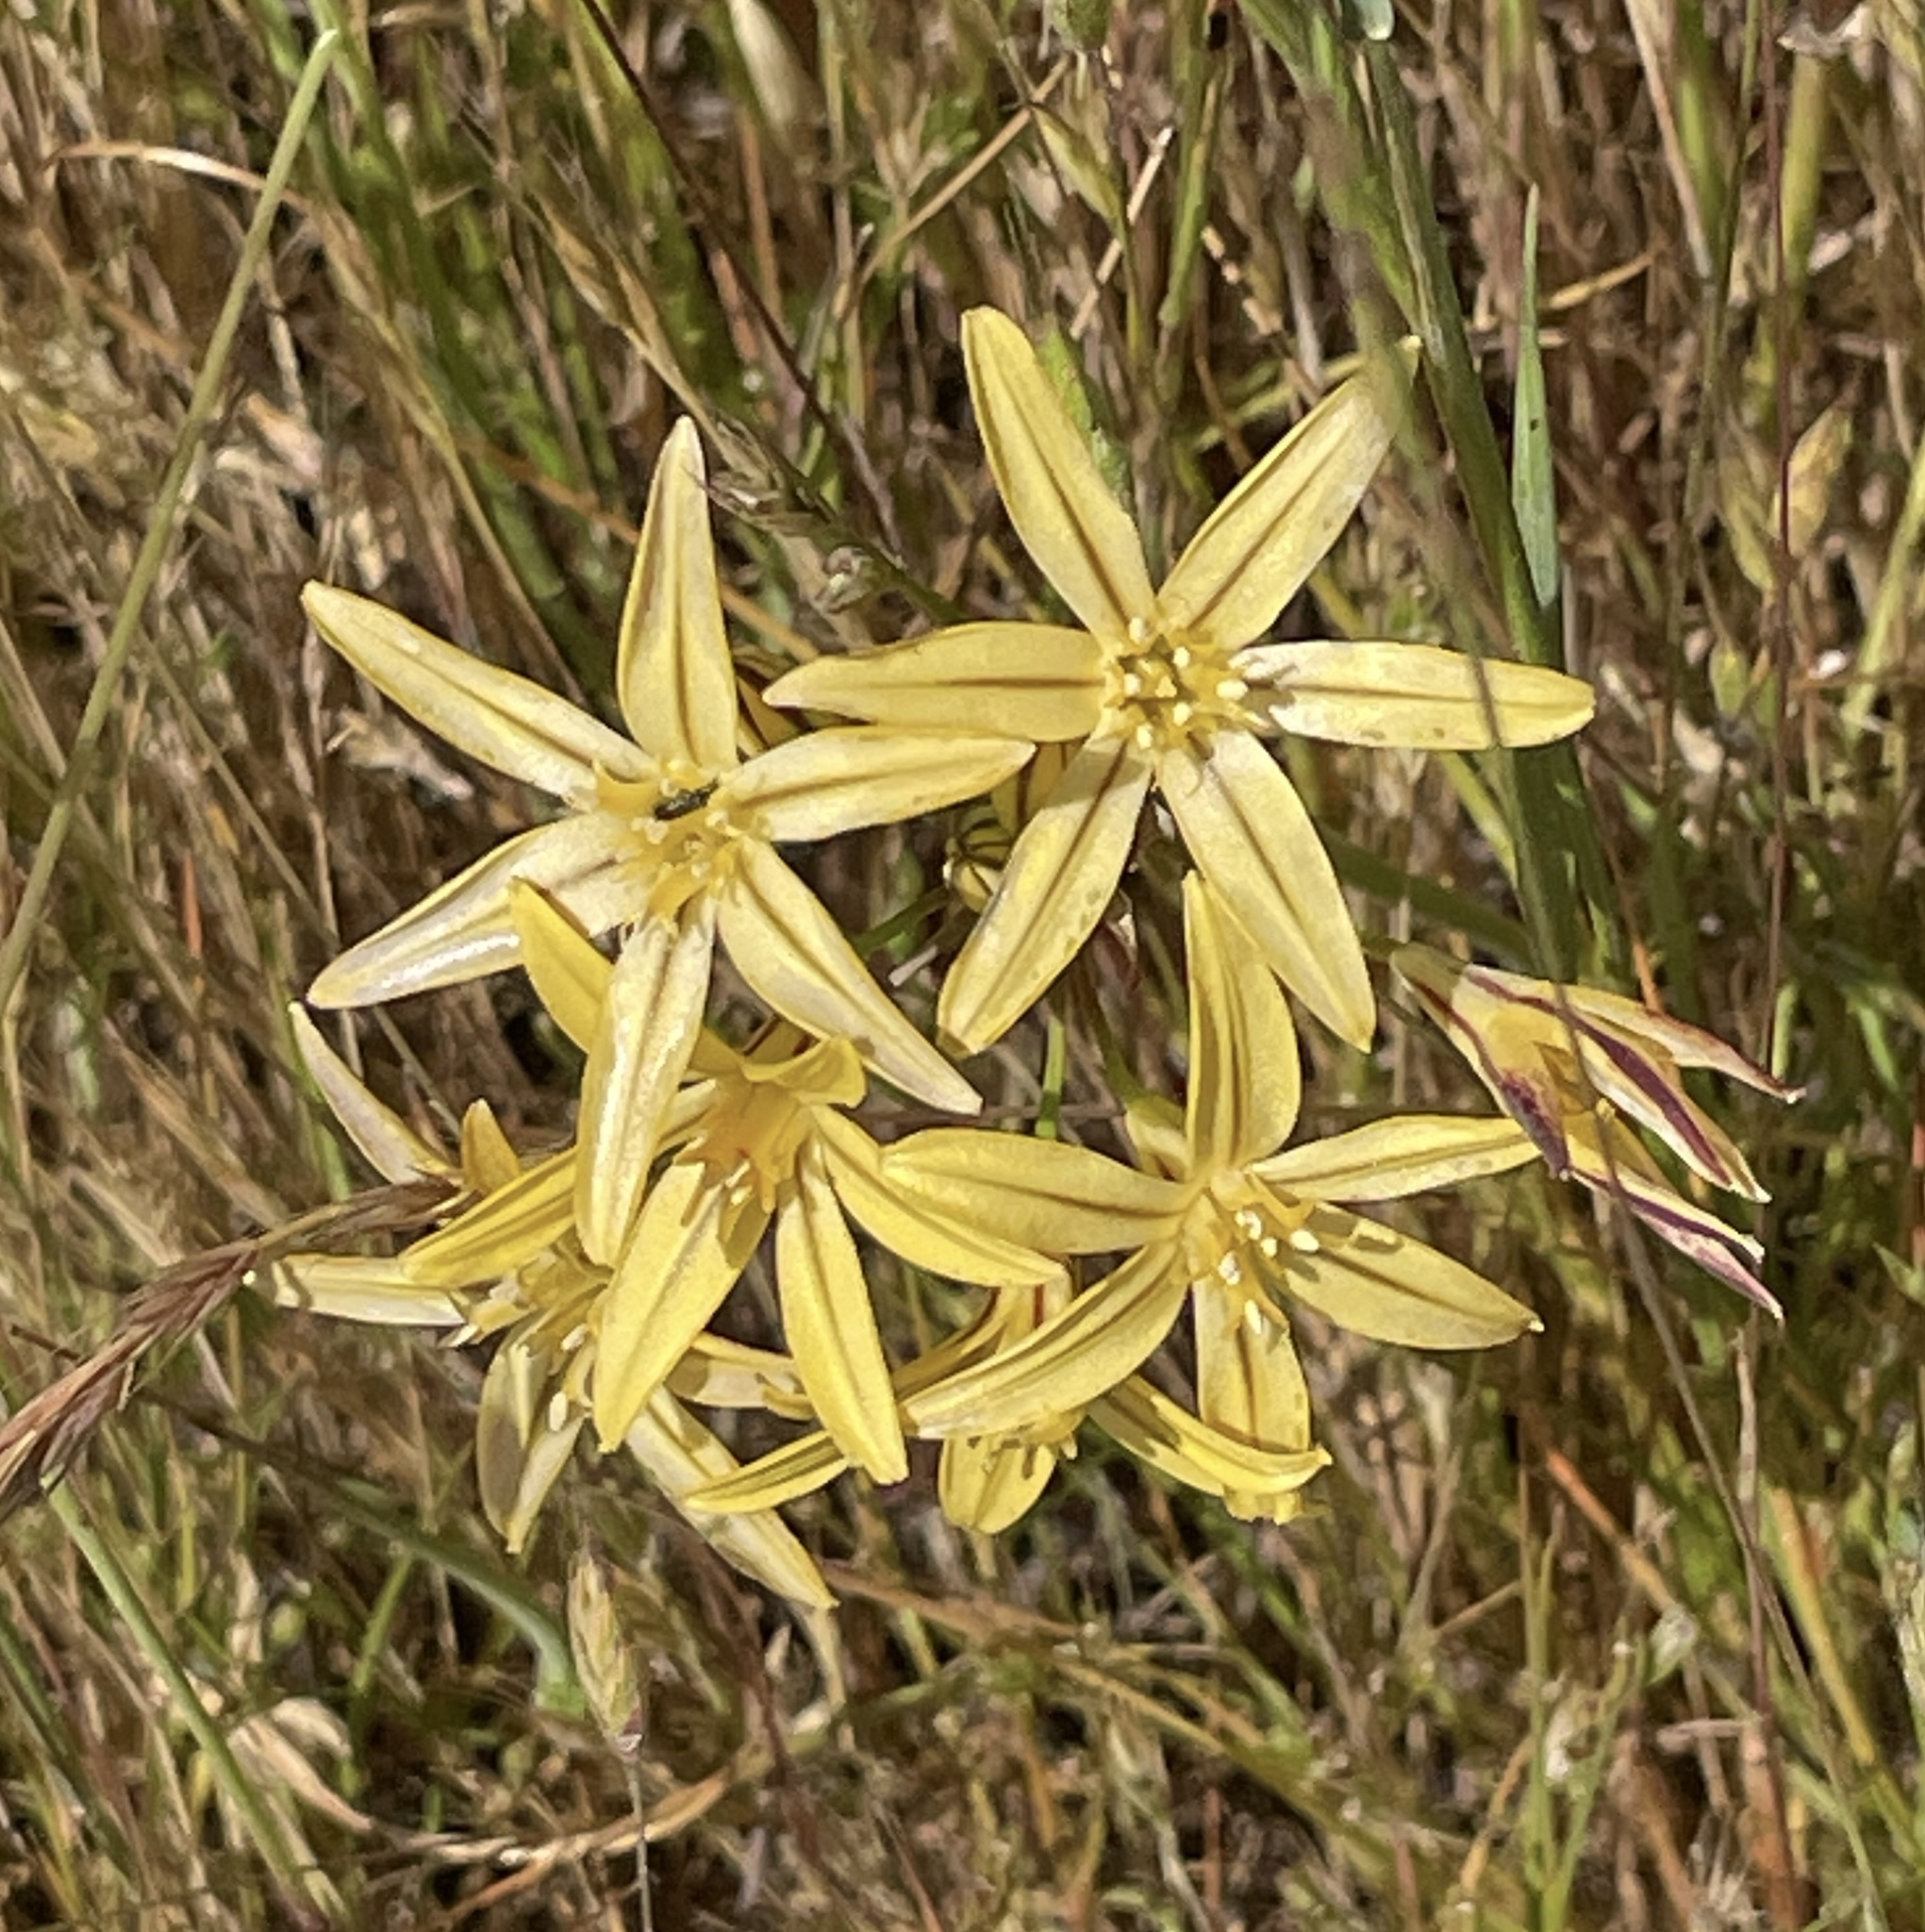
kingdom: Plantae
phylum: Tracheophyta
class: Liliopsida
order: Asparagales
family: Asparagaceae
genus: Triteleia
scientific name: Triteleia ixioides
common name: Yellow-brodiaea
